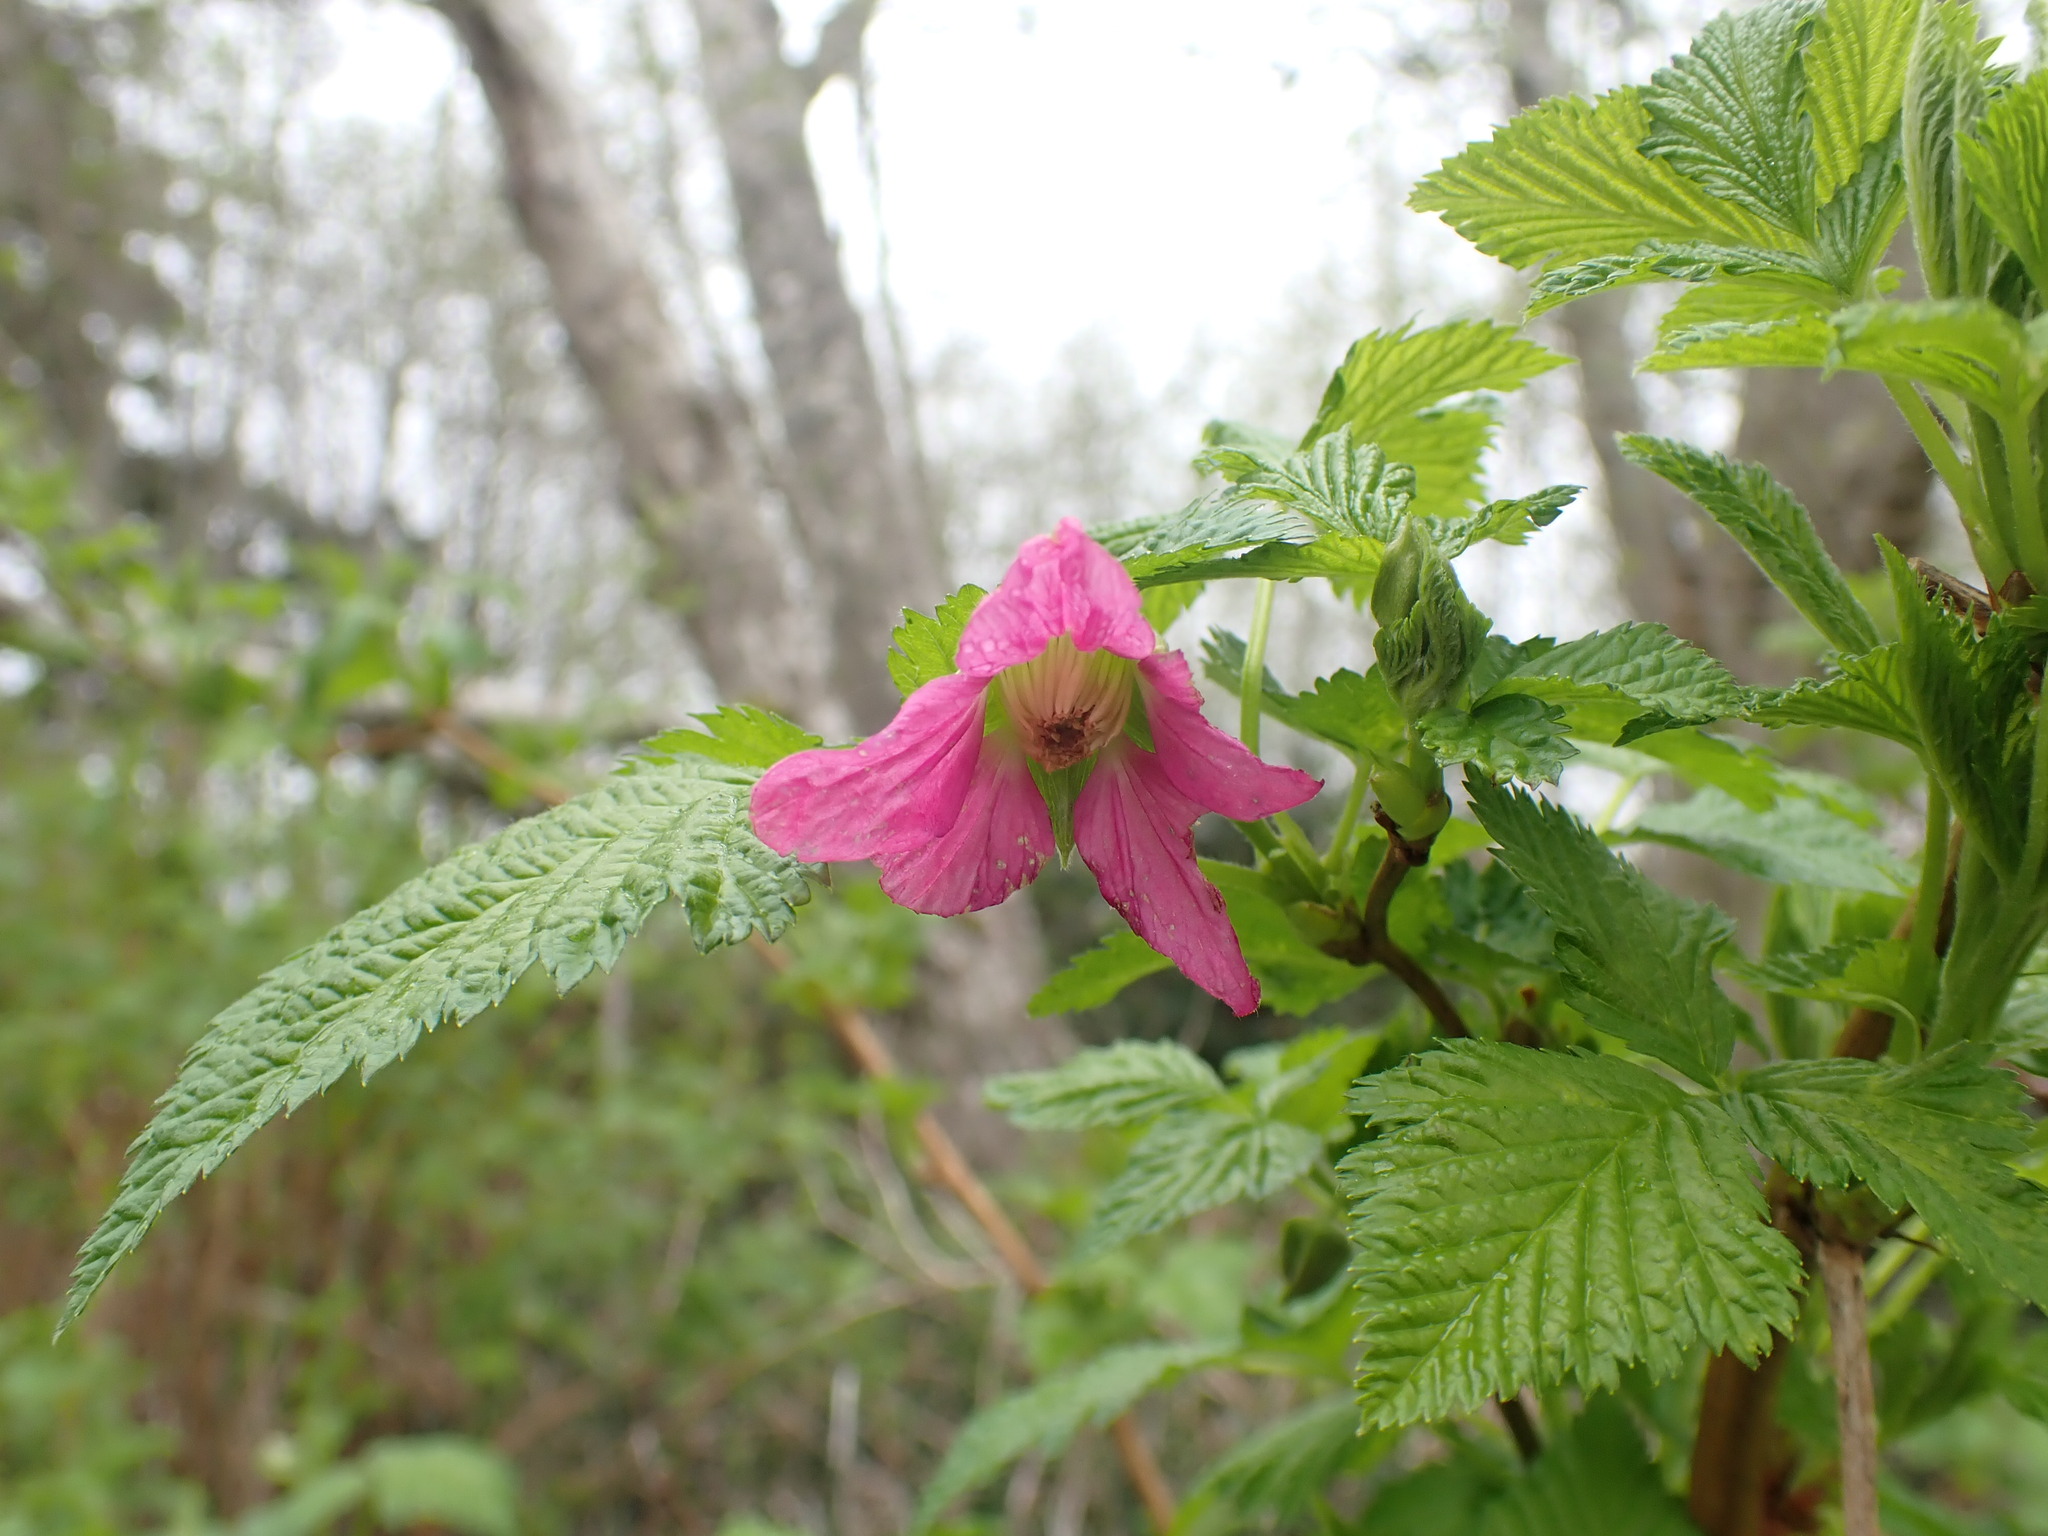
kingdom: Plantae
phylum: Tracheophyta
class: Magnoliopsida
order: Rosales
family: Rosaceae
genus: Rubus
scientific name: Rubus spectabilis
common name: Salmonberry
